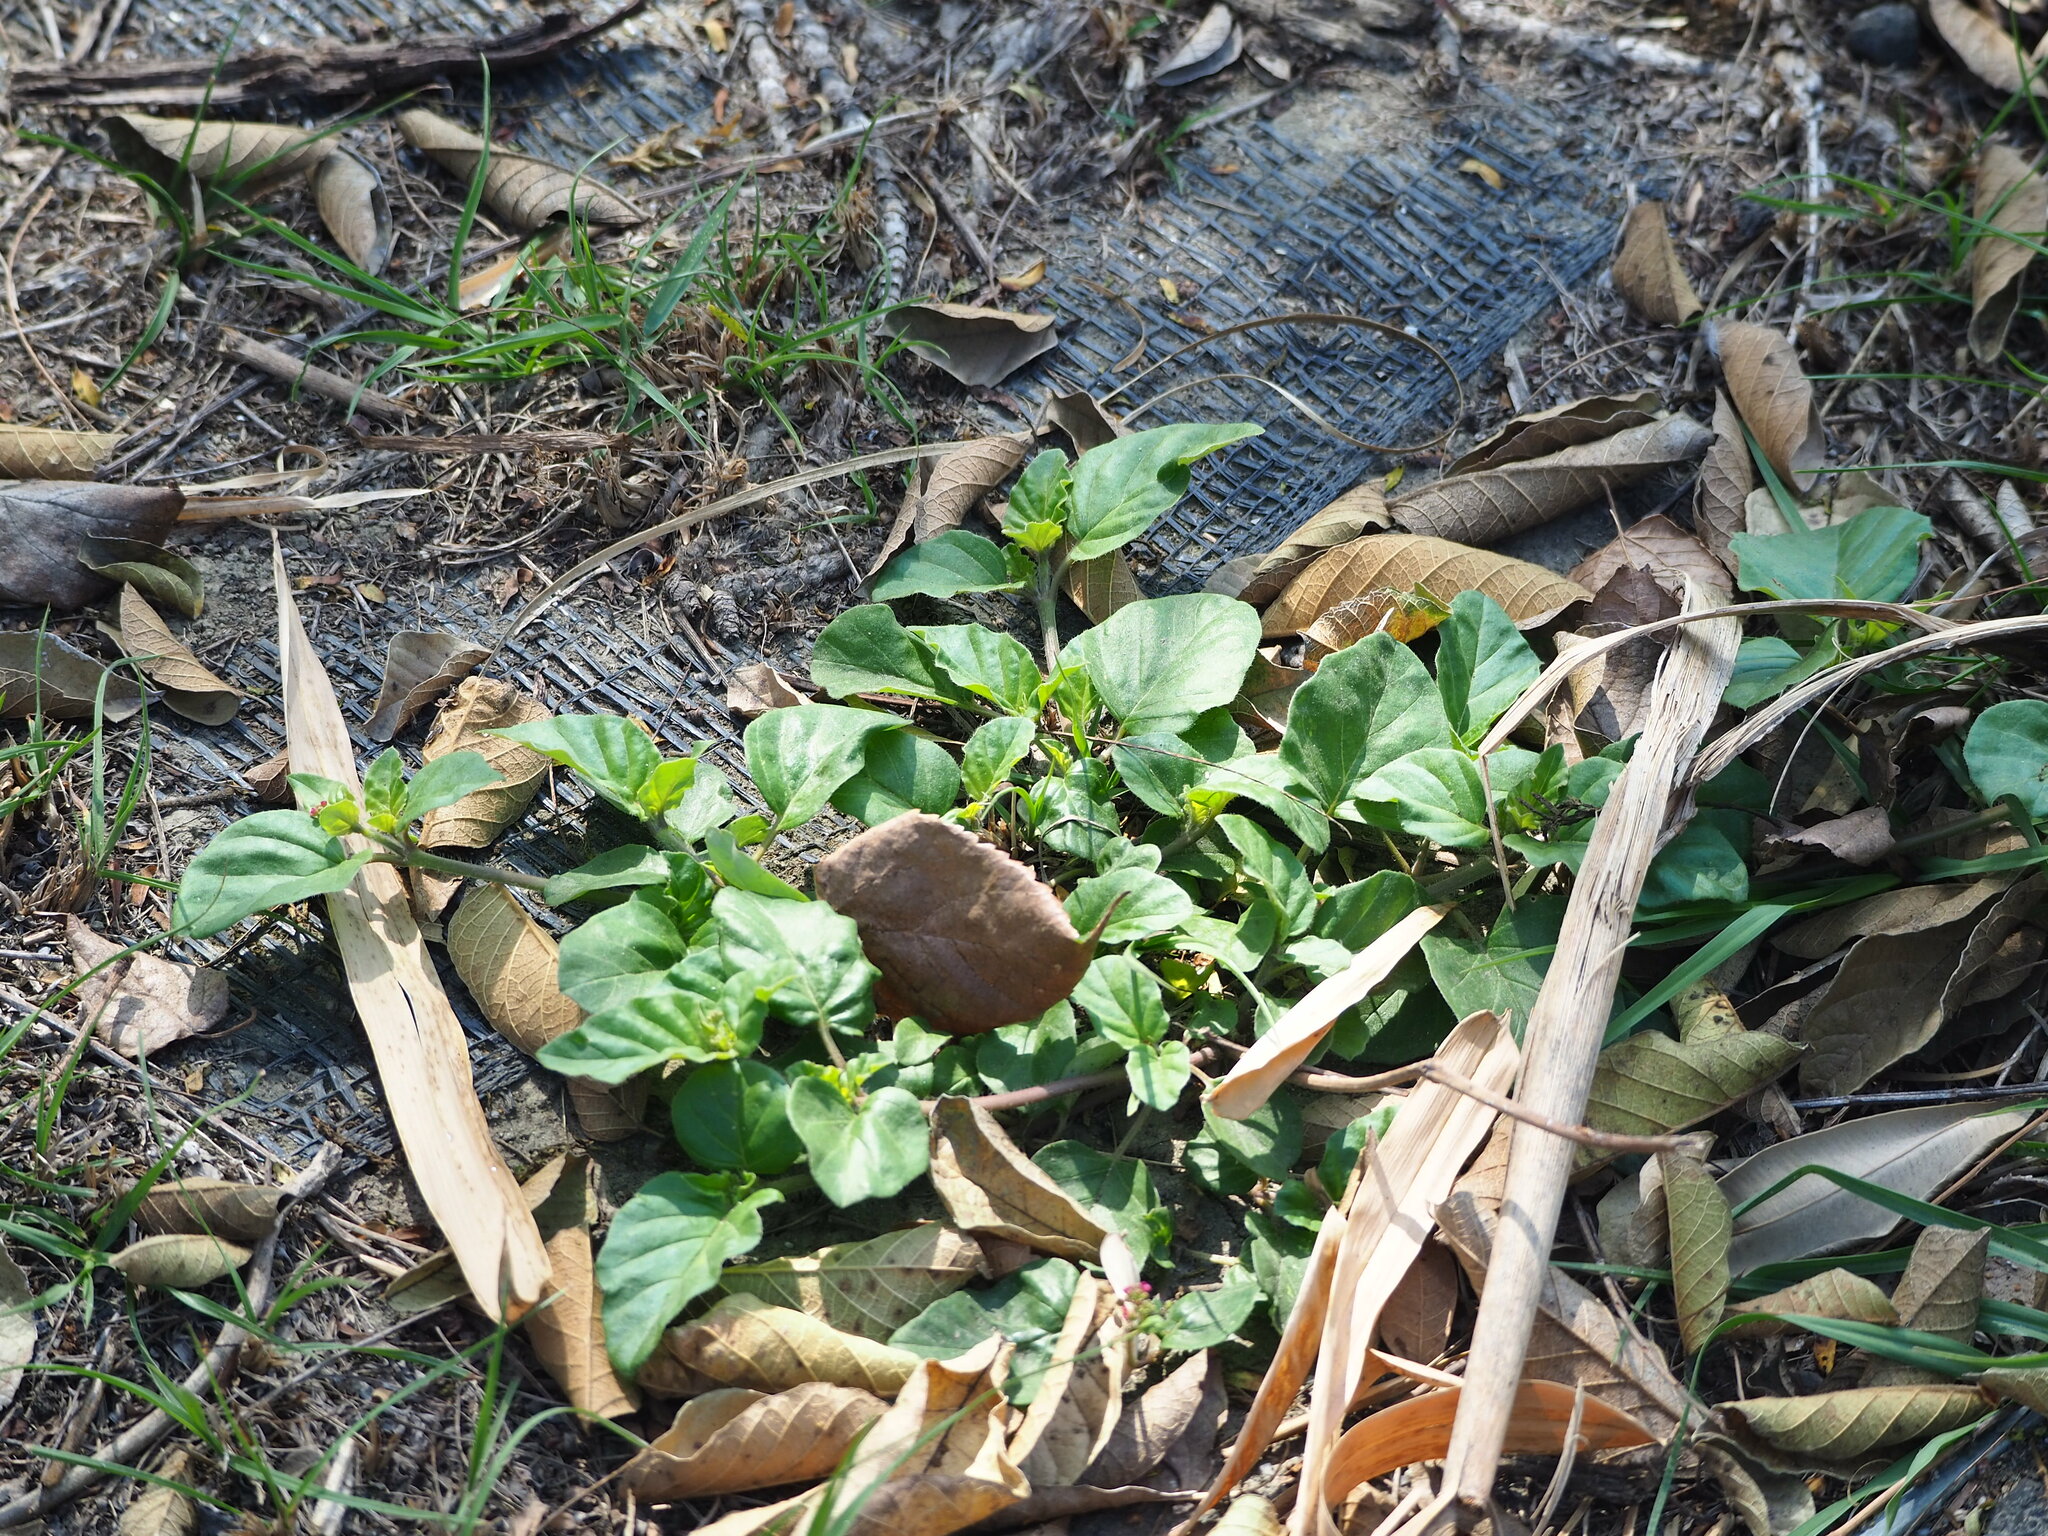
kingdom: Plantae
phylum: Tracheophyta
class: Magnoliopsida
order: Caryophyllales
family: Nyctaginaceae
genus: Boerhavia
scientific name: Boerhavia coccinea
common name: Scarlet spiderling
